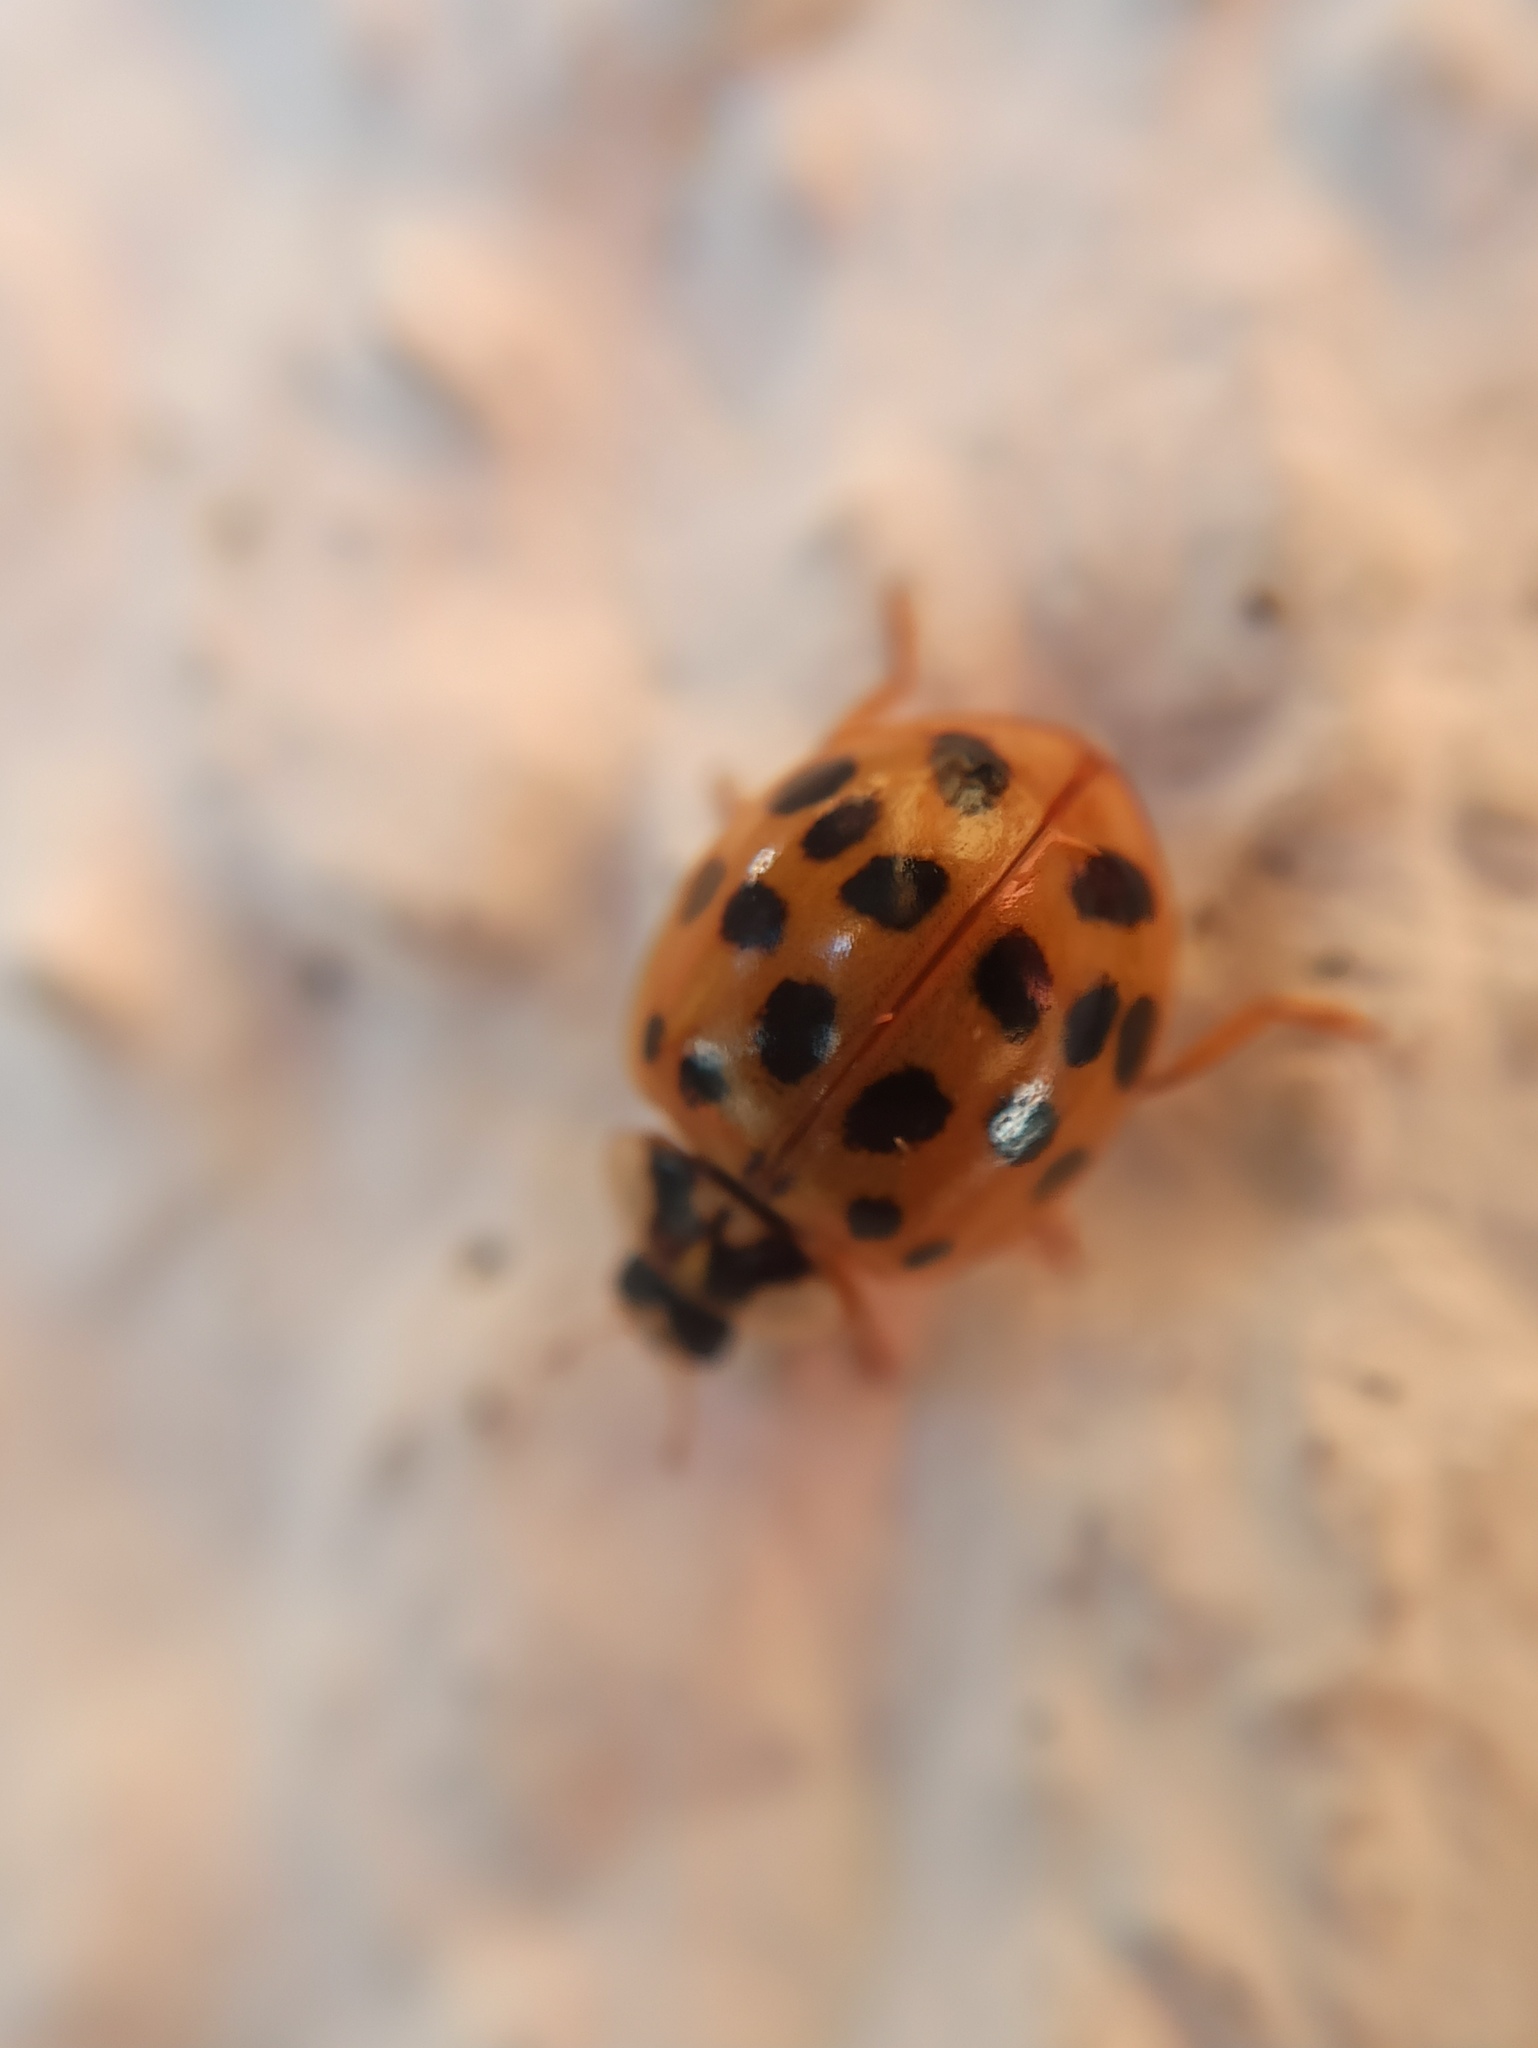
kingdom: Animalia
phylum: Arthropoda
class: Insecta
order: Coleoptera
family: Coccinellidae
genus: Harmonia
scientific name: Harmonia axyridis
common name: Harlequin ladybird
